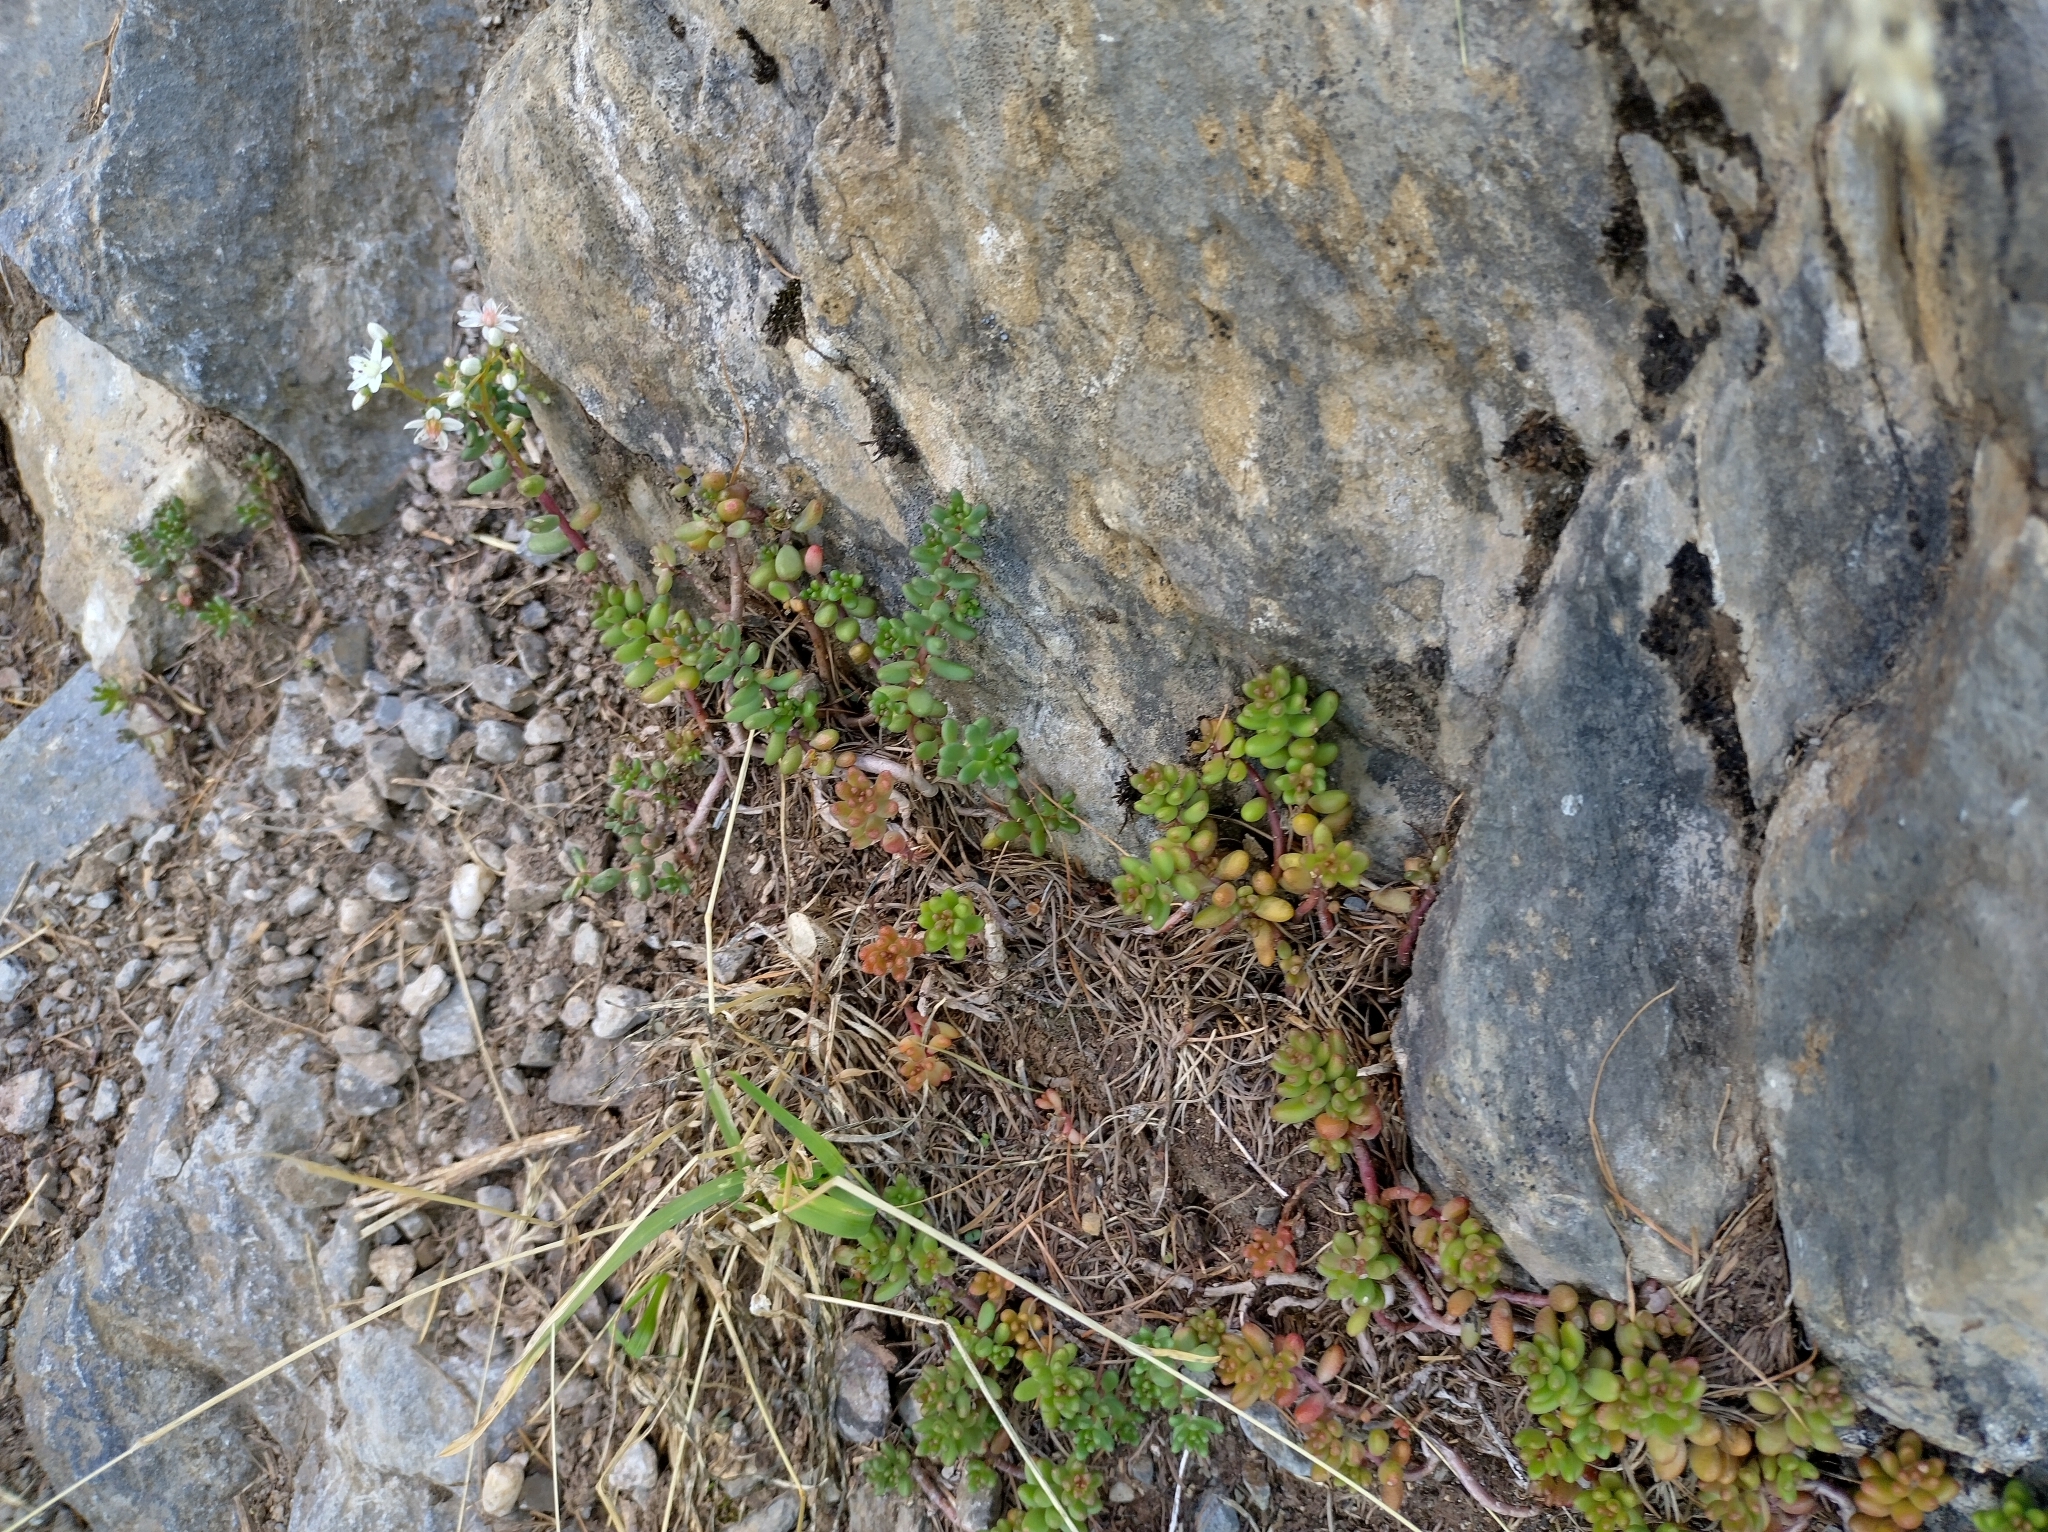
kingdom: Plantae
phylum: Tracheophyta
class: Magnoliopsida
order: Saxifragales
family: Crassulaceae
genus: Sedum
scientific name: Sedum album
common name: White stonecrop
